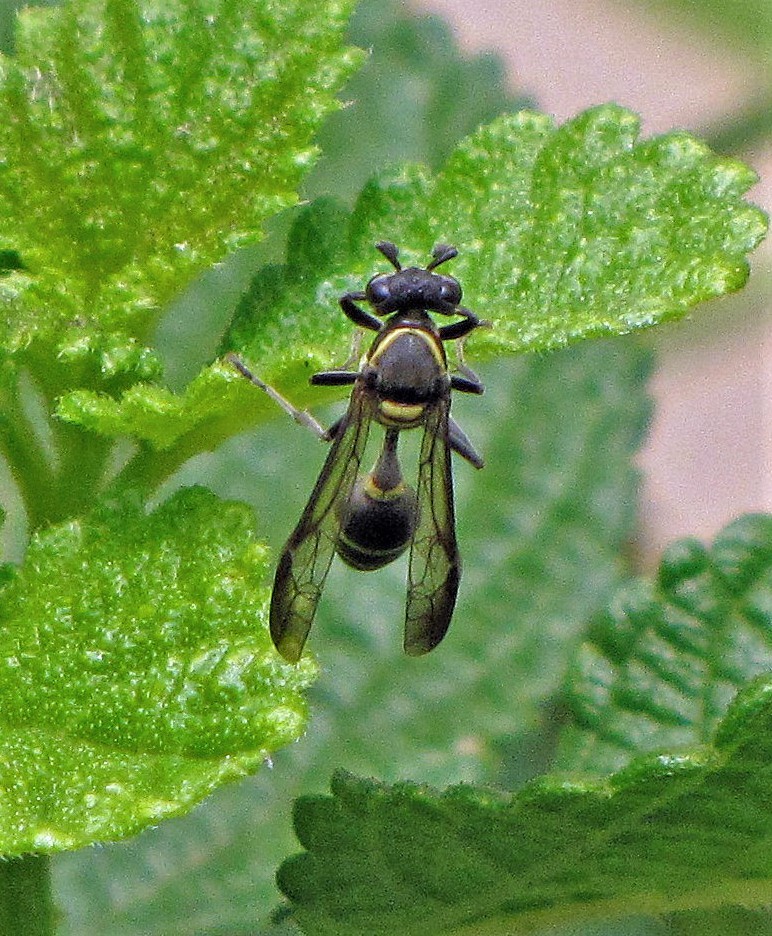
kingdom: Animalia
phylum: Arthropoda
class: Insecta
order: Hymenoptera
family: Eumenidae
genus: Polybia
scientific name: Polybia occidentalis
